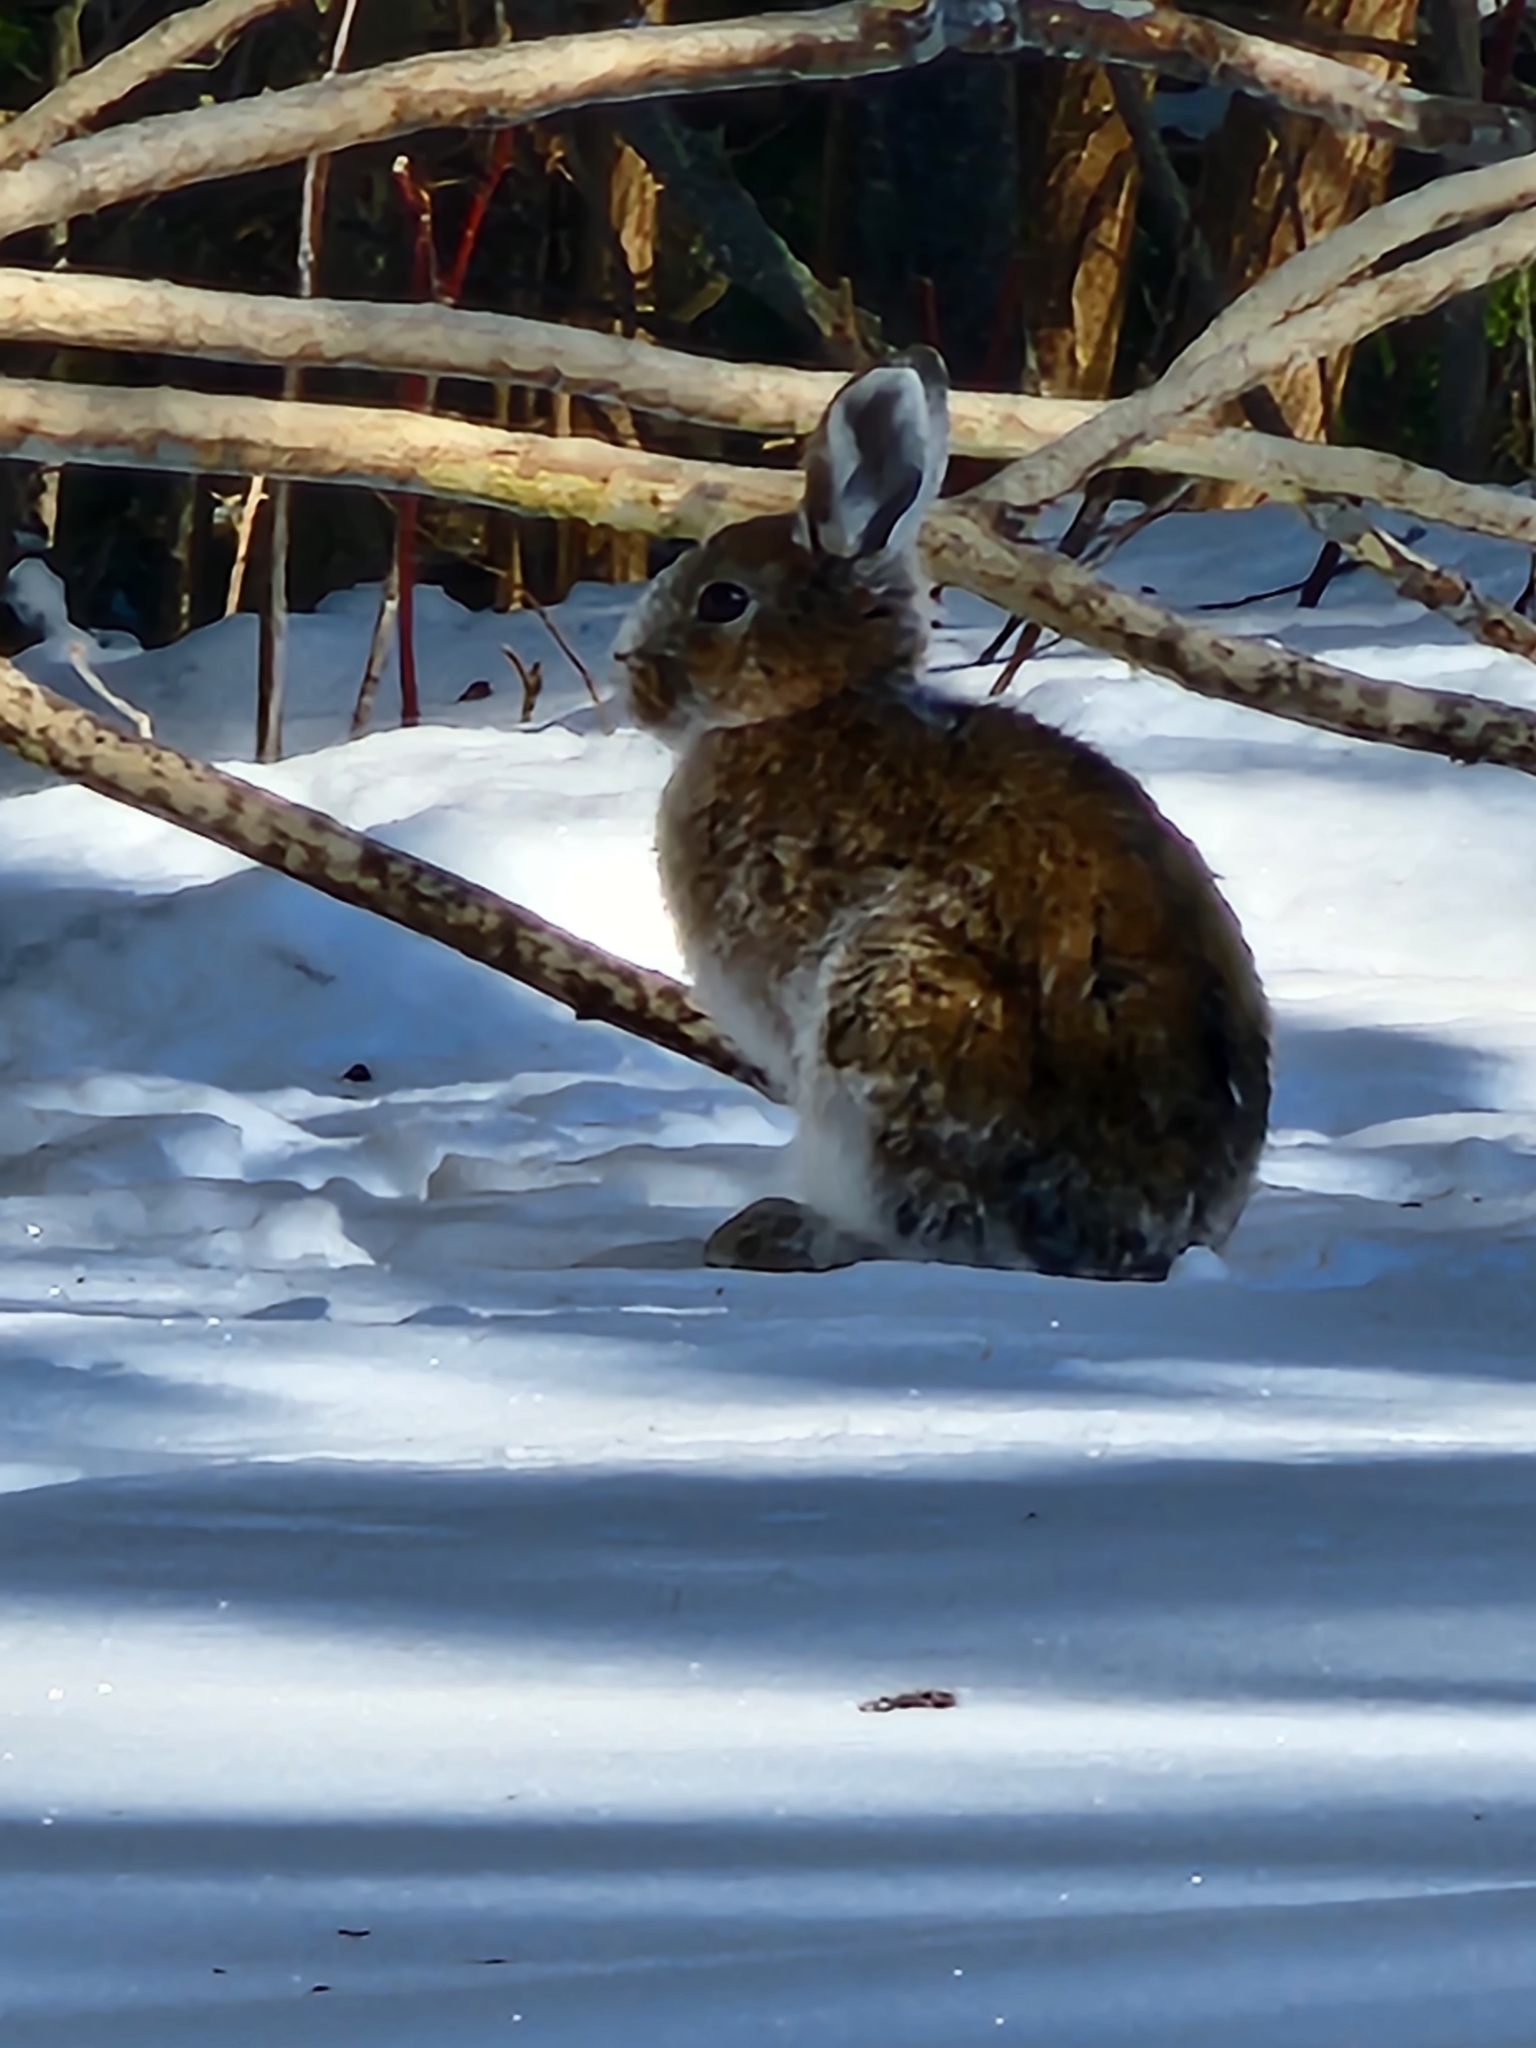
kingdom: Animalia
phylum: Chordata
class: Mammalia
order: Lagomorpha
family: Leporidae
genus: Lepus
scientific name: Lepus americanus
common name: Snowshoe hare
